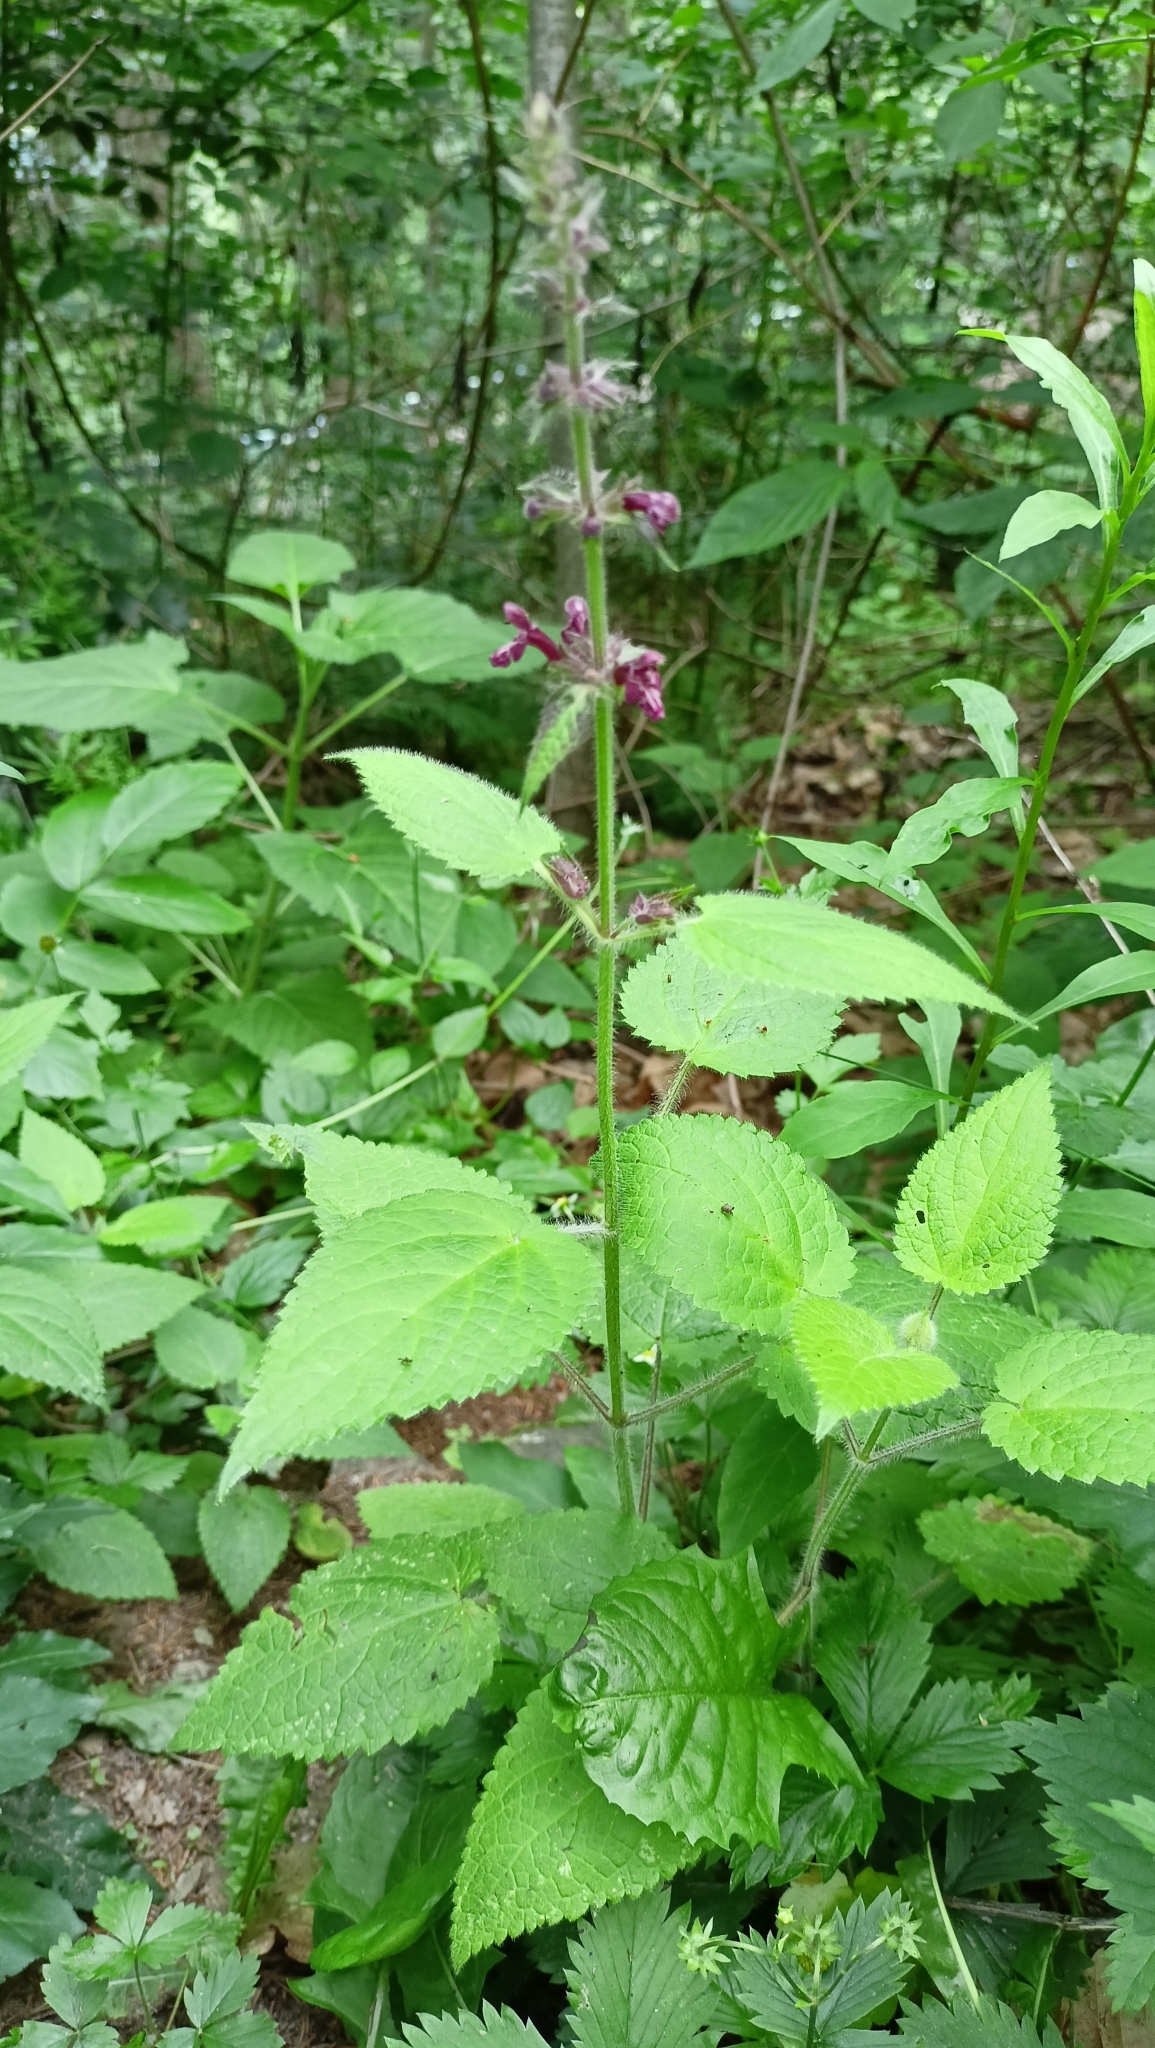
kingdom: Plantae
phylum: Tracheophyta
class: Magnoliopsida
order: Lamiales
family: Lamiaceae
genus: Stachys
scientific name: Stachys sylvatica
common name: Hedge woundwort
